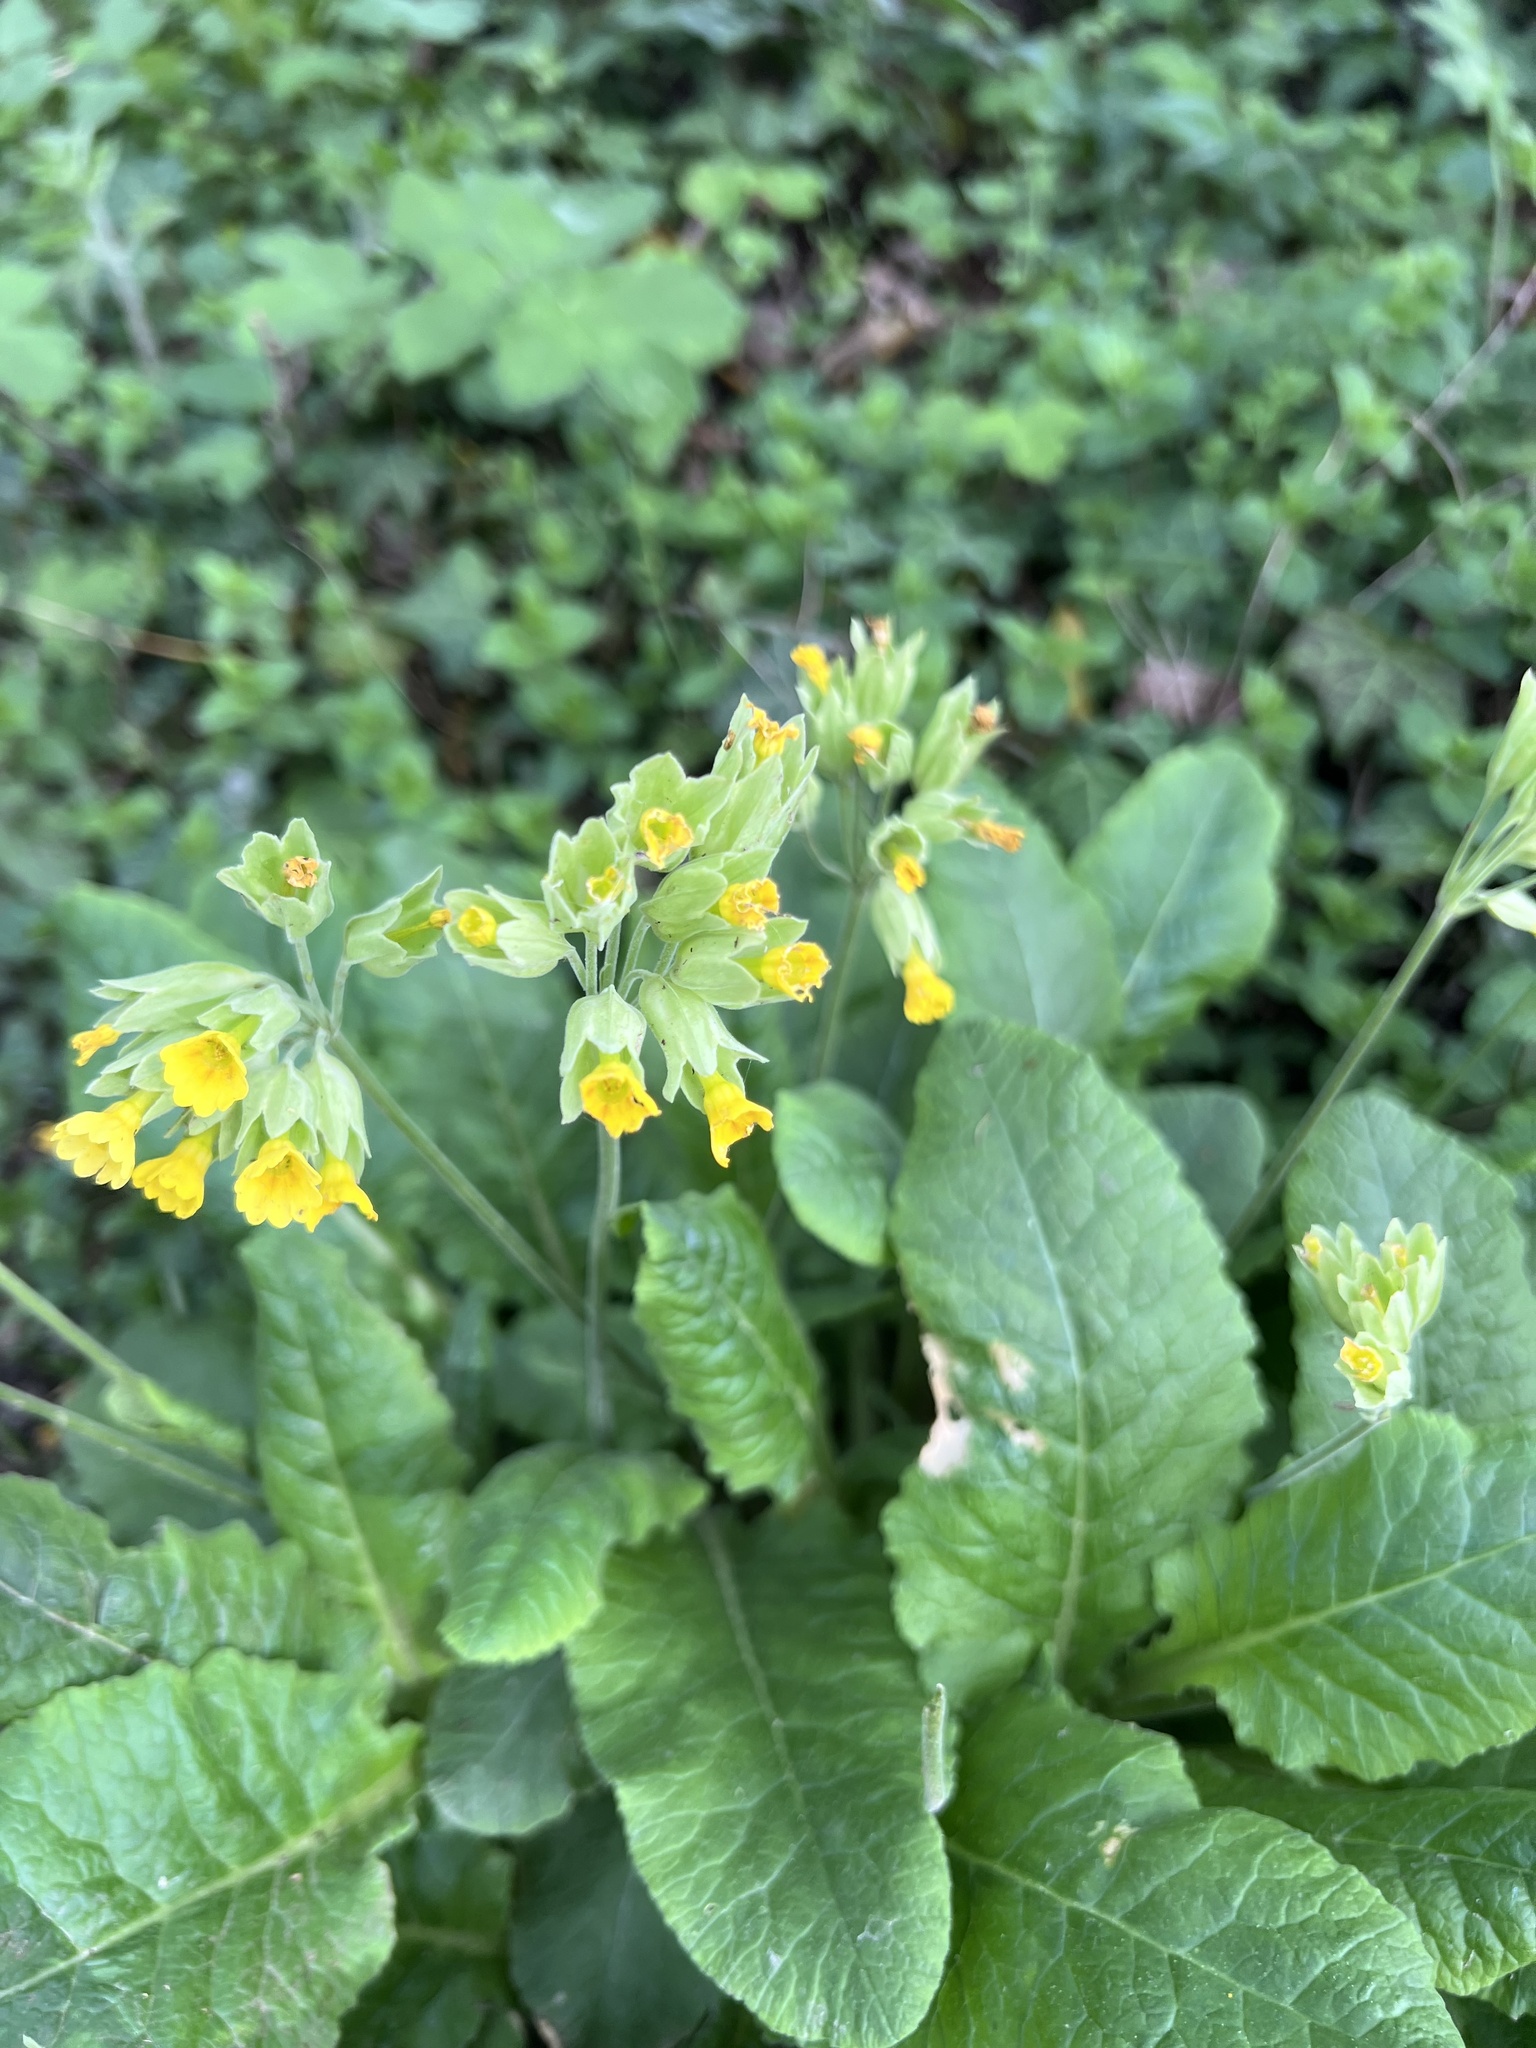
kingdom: Plantae
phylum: Tracheophyta
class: Magnoliopsida
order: Ericales
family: Primulaceae
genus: Primula
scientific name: Primula veris
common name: Cowslip
